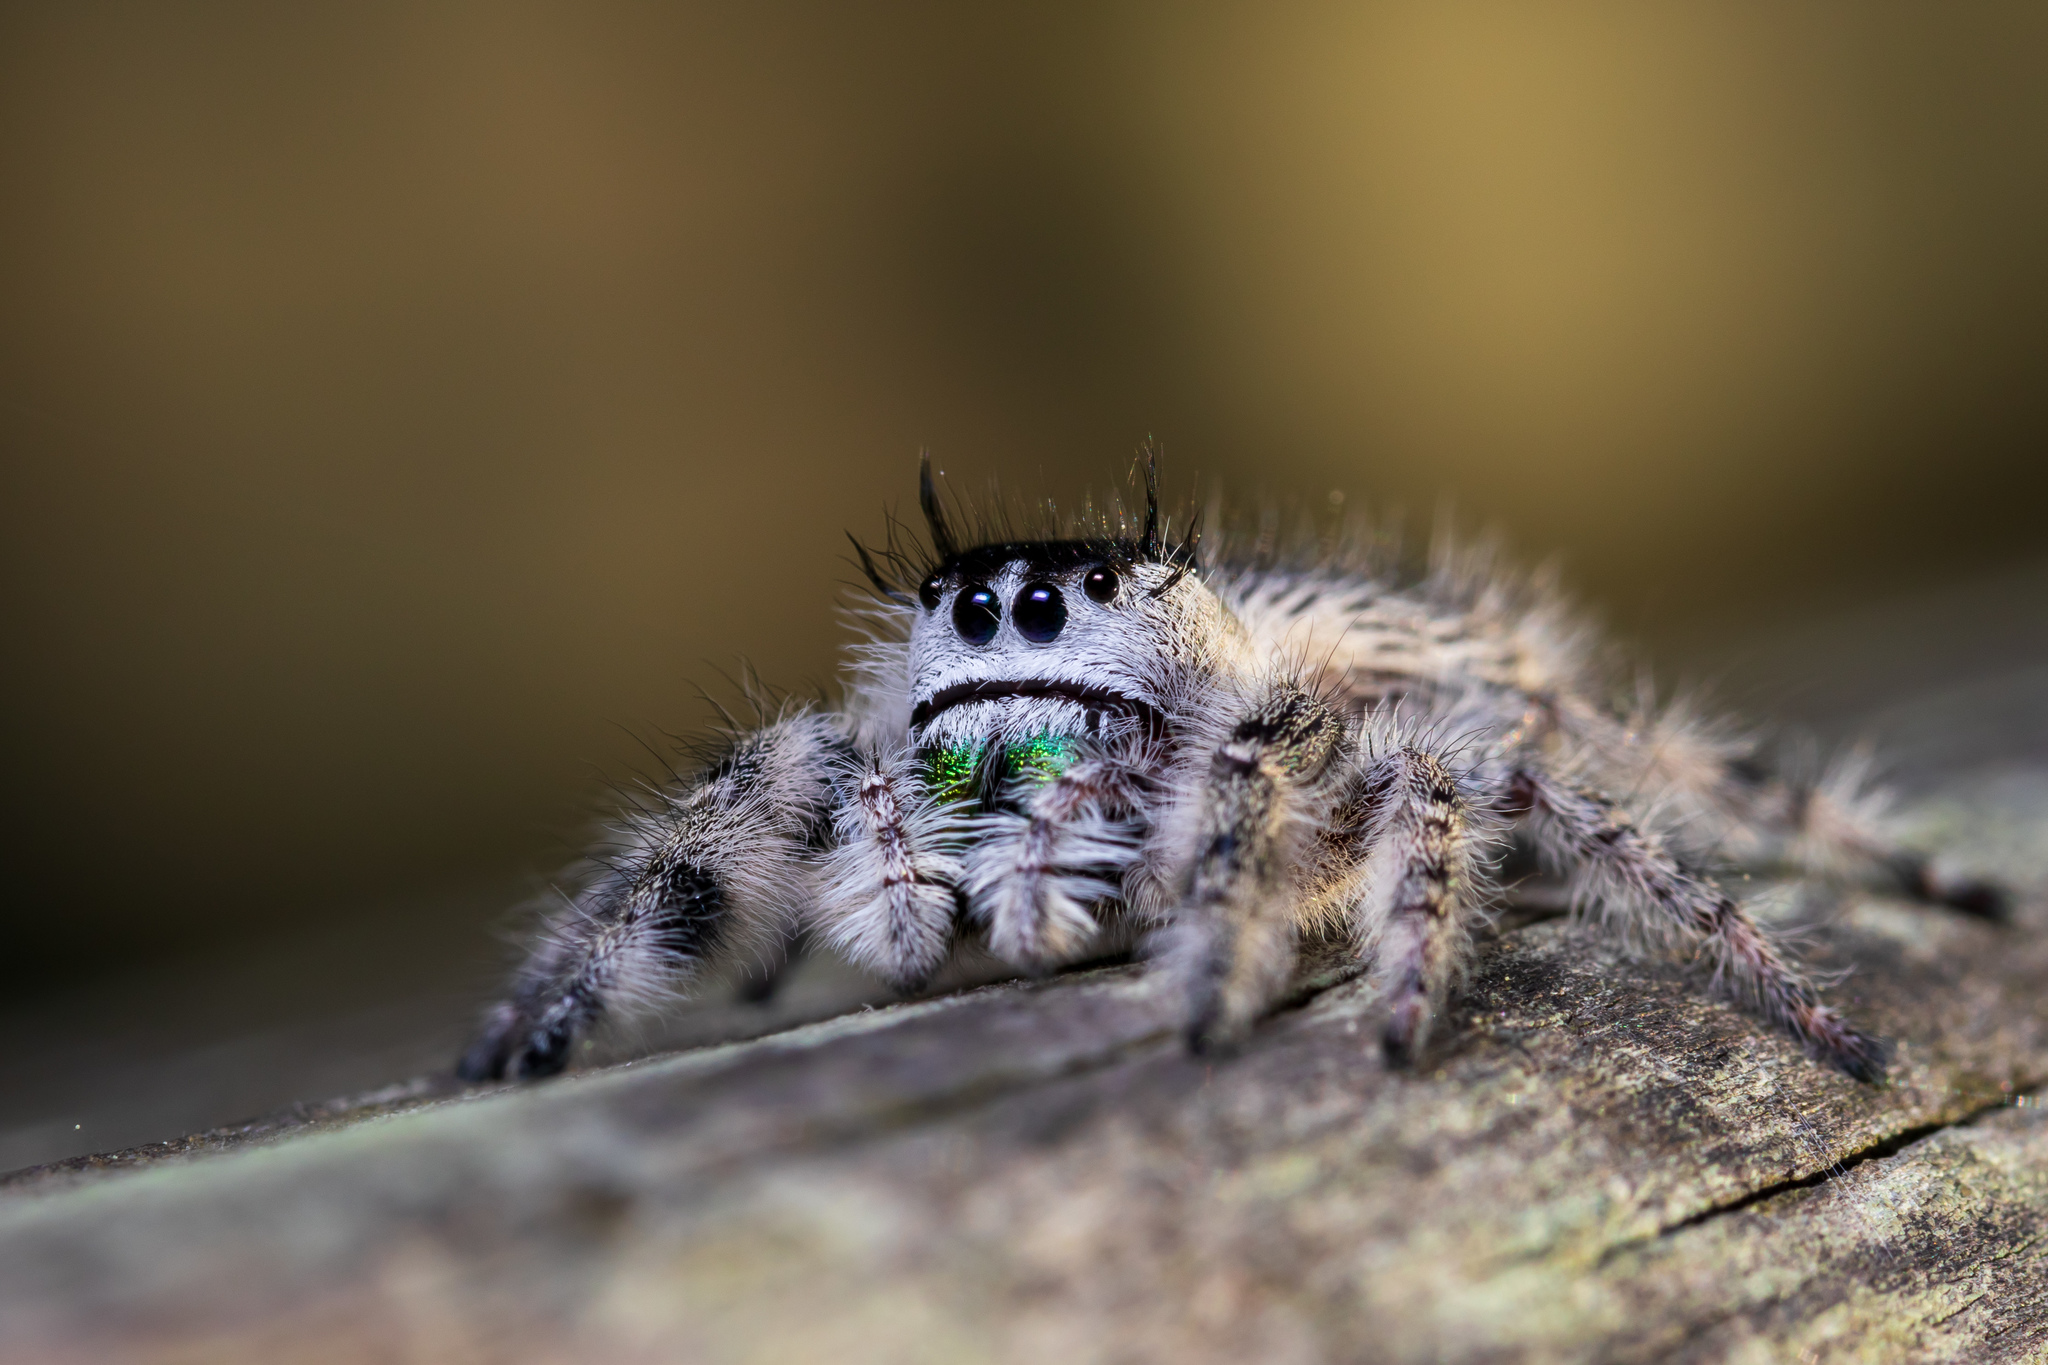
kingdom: Animalia
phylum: Arthropoda
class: Arachnida
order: Araneae
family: Salticidae
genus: Phidippus
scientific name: Phidippus otiosus
